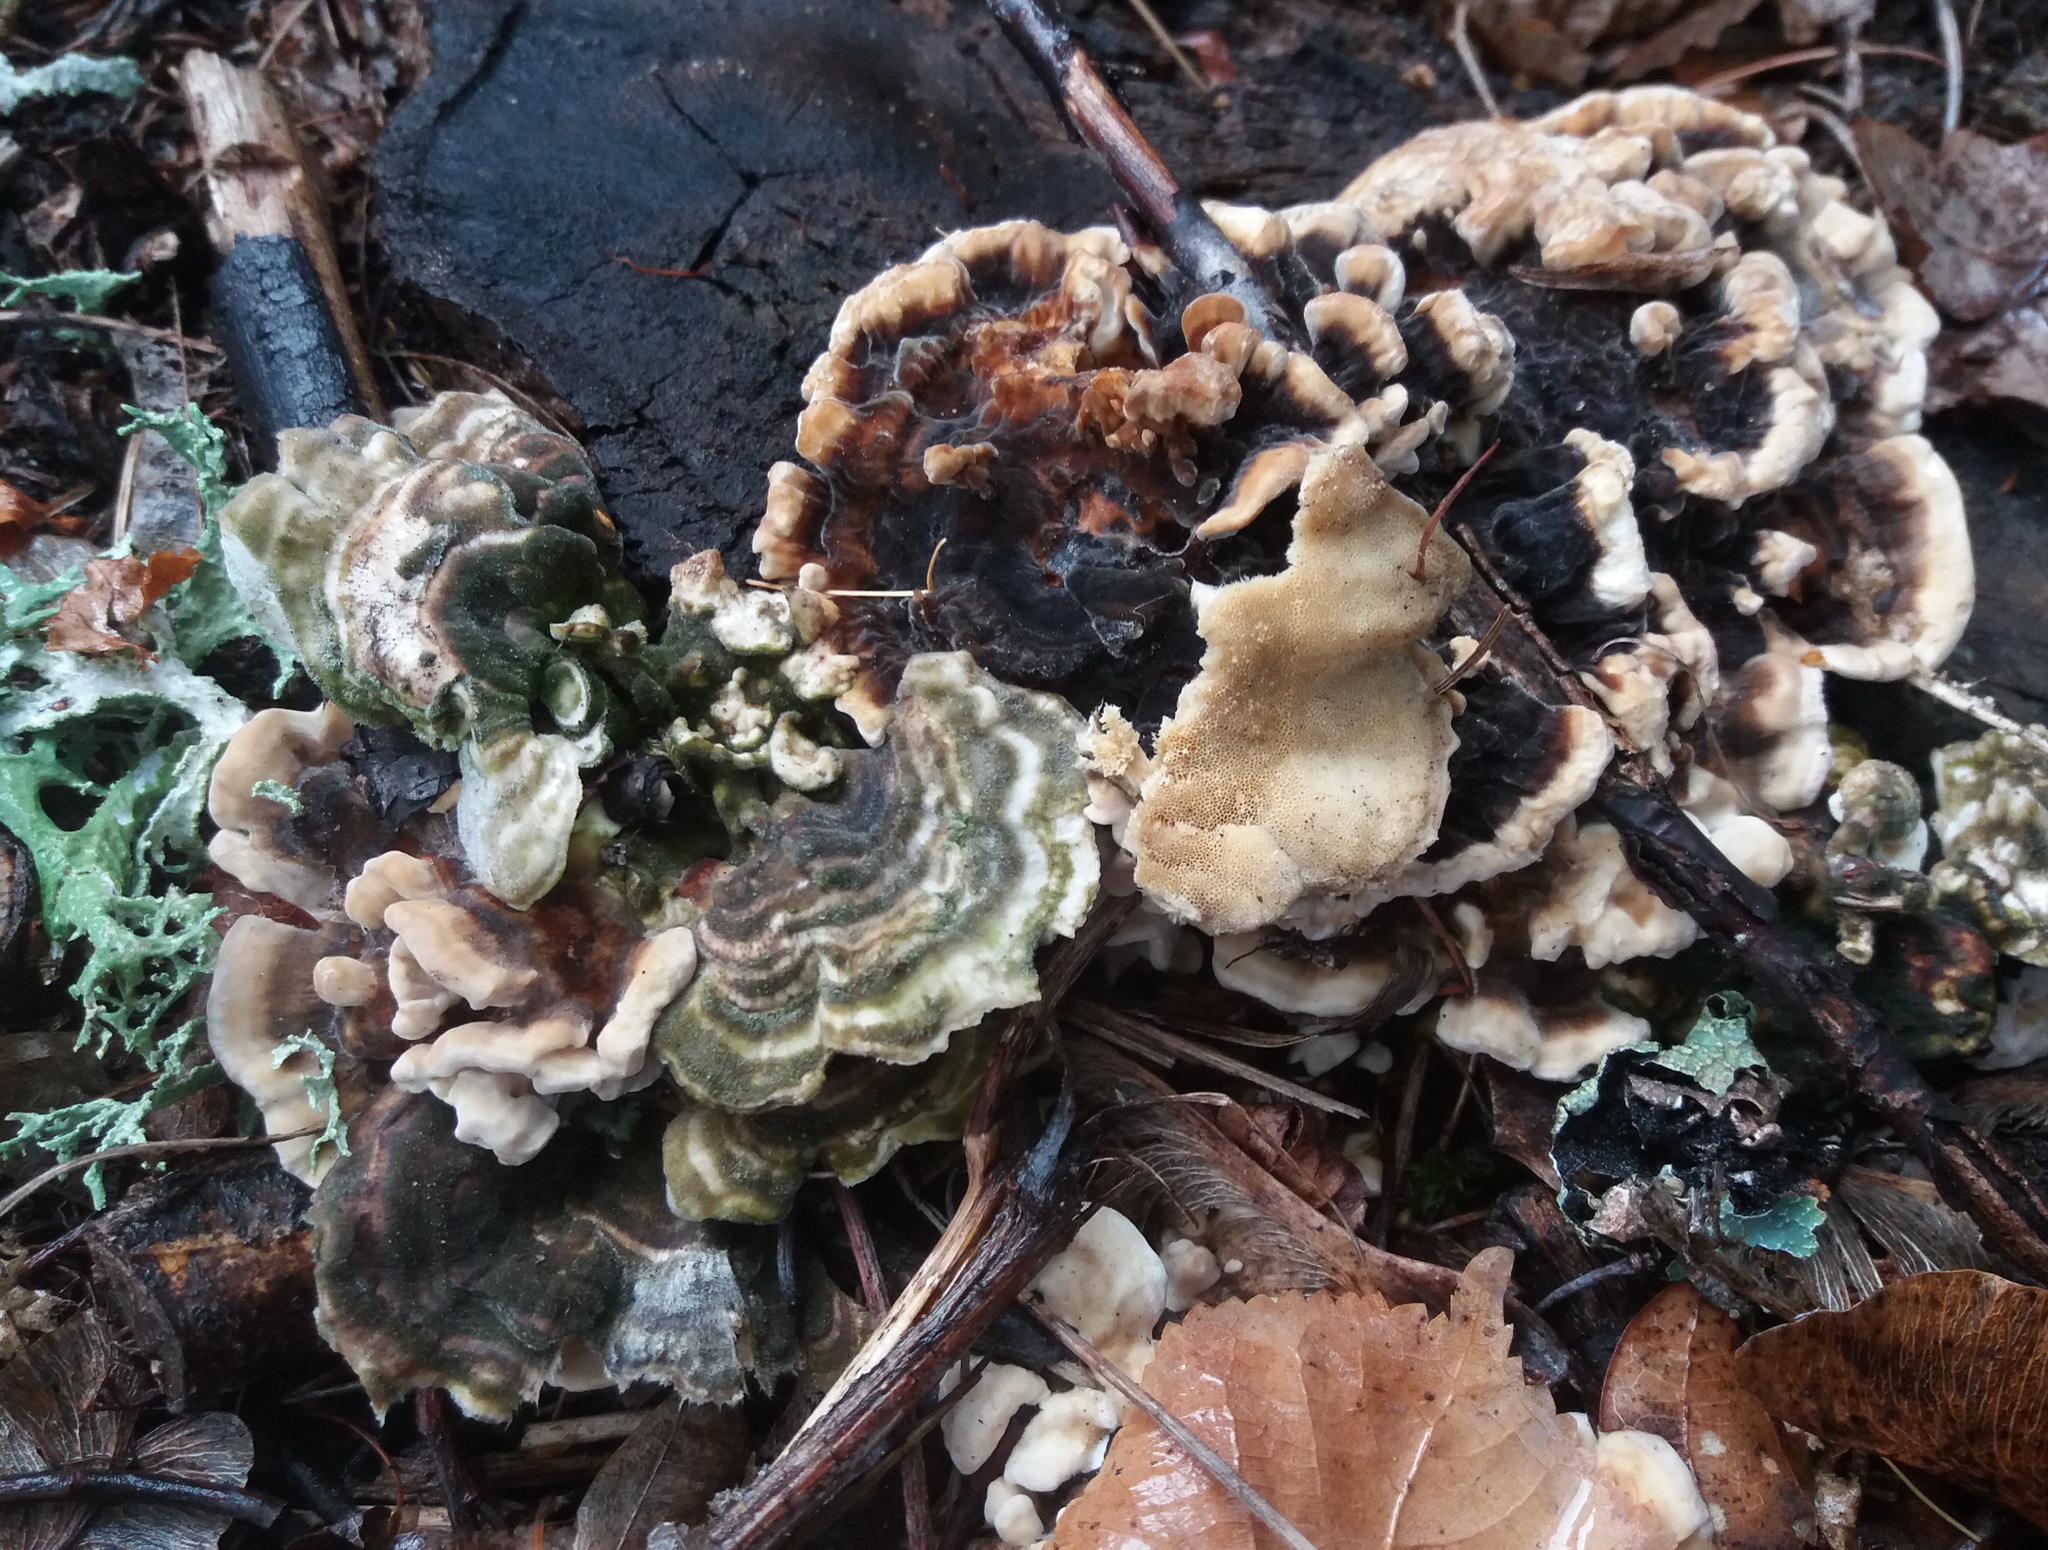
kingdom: Fungi
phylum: Basidiomycota
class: Agaricomycetes
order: Polyporales
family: Polyporaceae
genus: Trametes
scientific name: Trametes versicolor
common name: Turkeytail
